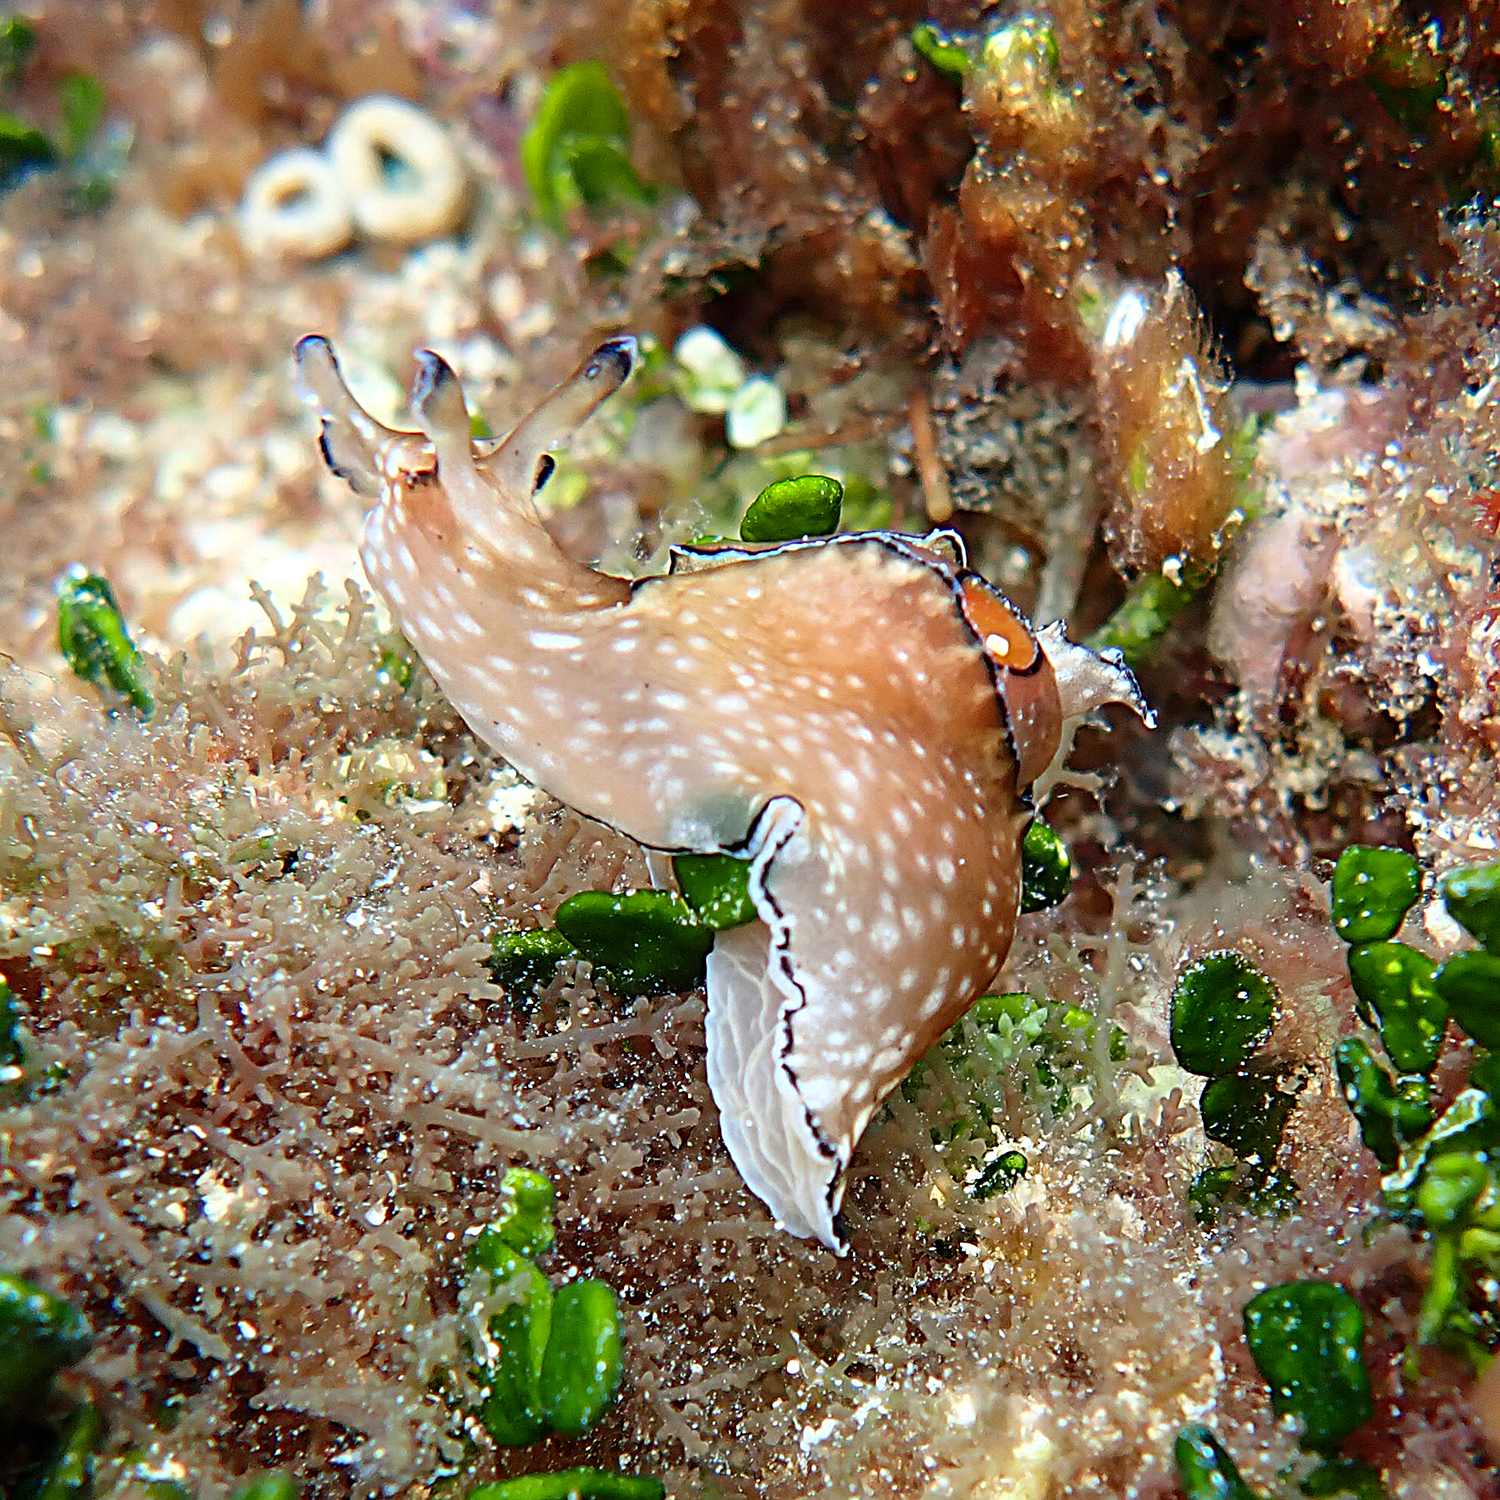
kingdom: Animalia
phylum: Mollusca
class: Gastropoda
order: Aplysiida
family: Aplysiidae
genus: Aplysia
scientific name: Aplysia concava
